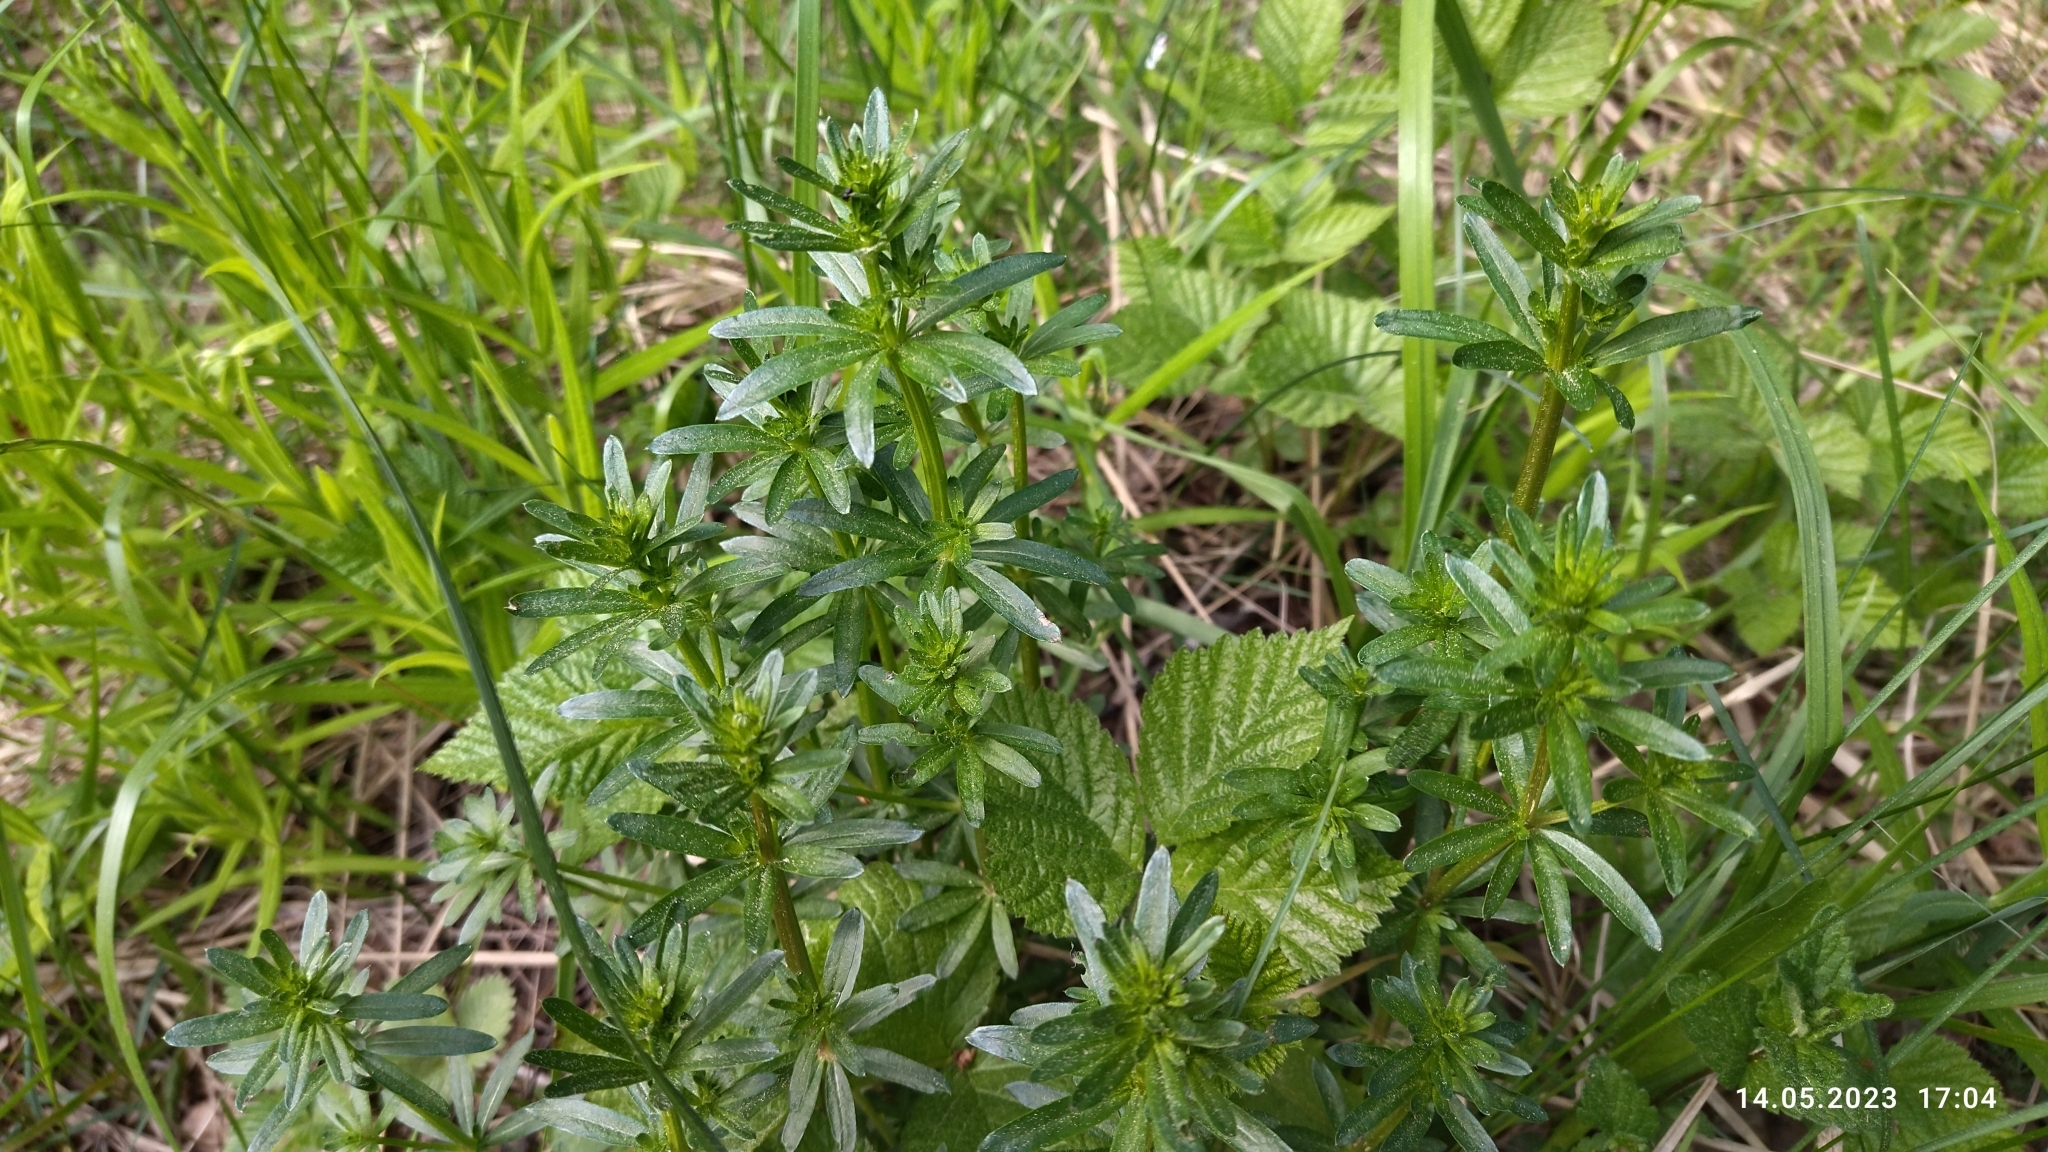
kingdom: Plantae
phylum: Tracheophyta
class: Magnoliopsida
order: Gentianales
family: Rubiaceae
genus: Galium
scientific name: Galium mollugo
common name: Hedge bedstraw
